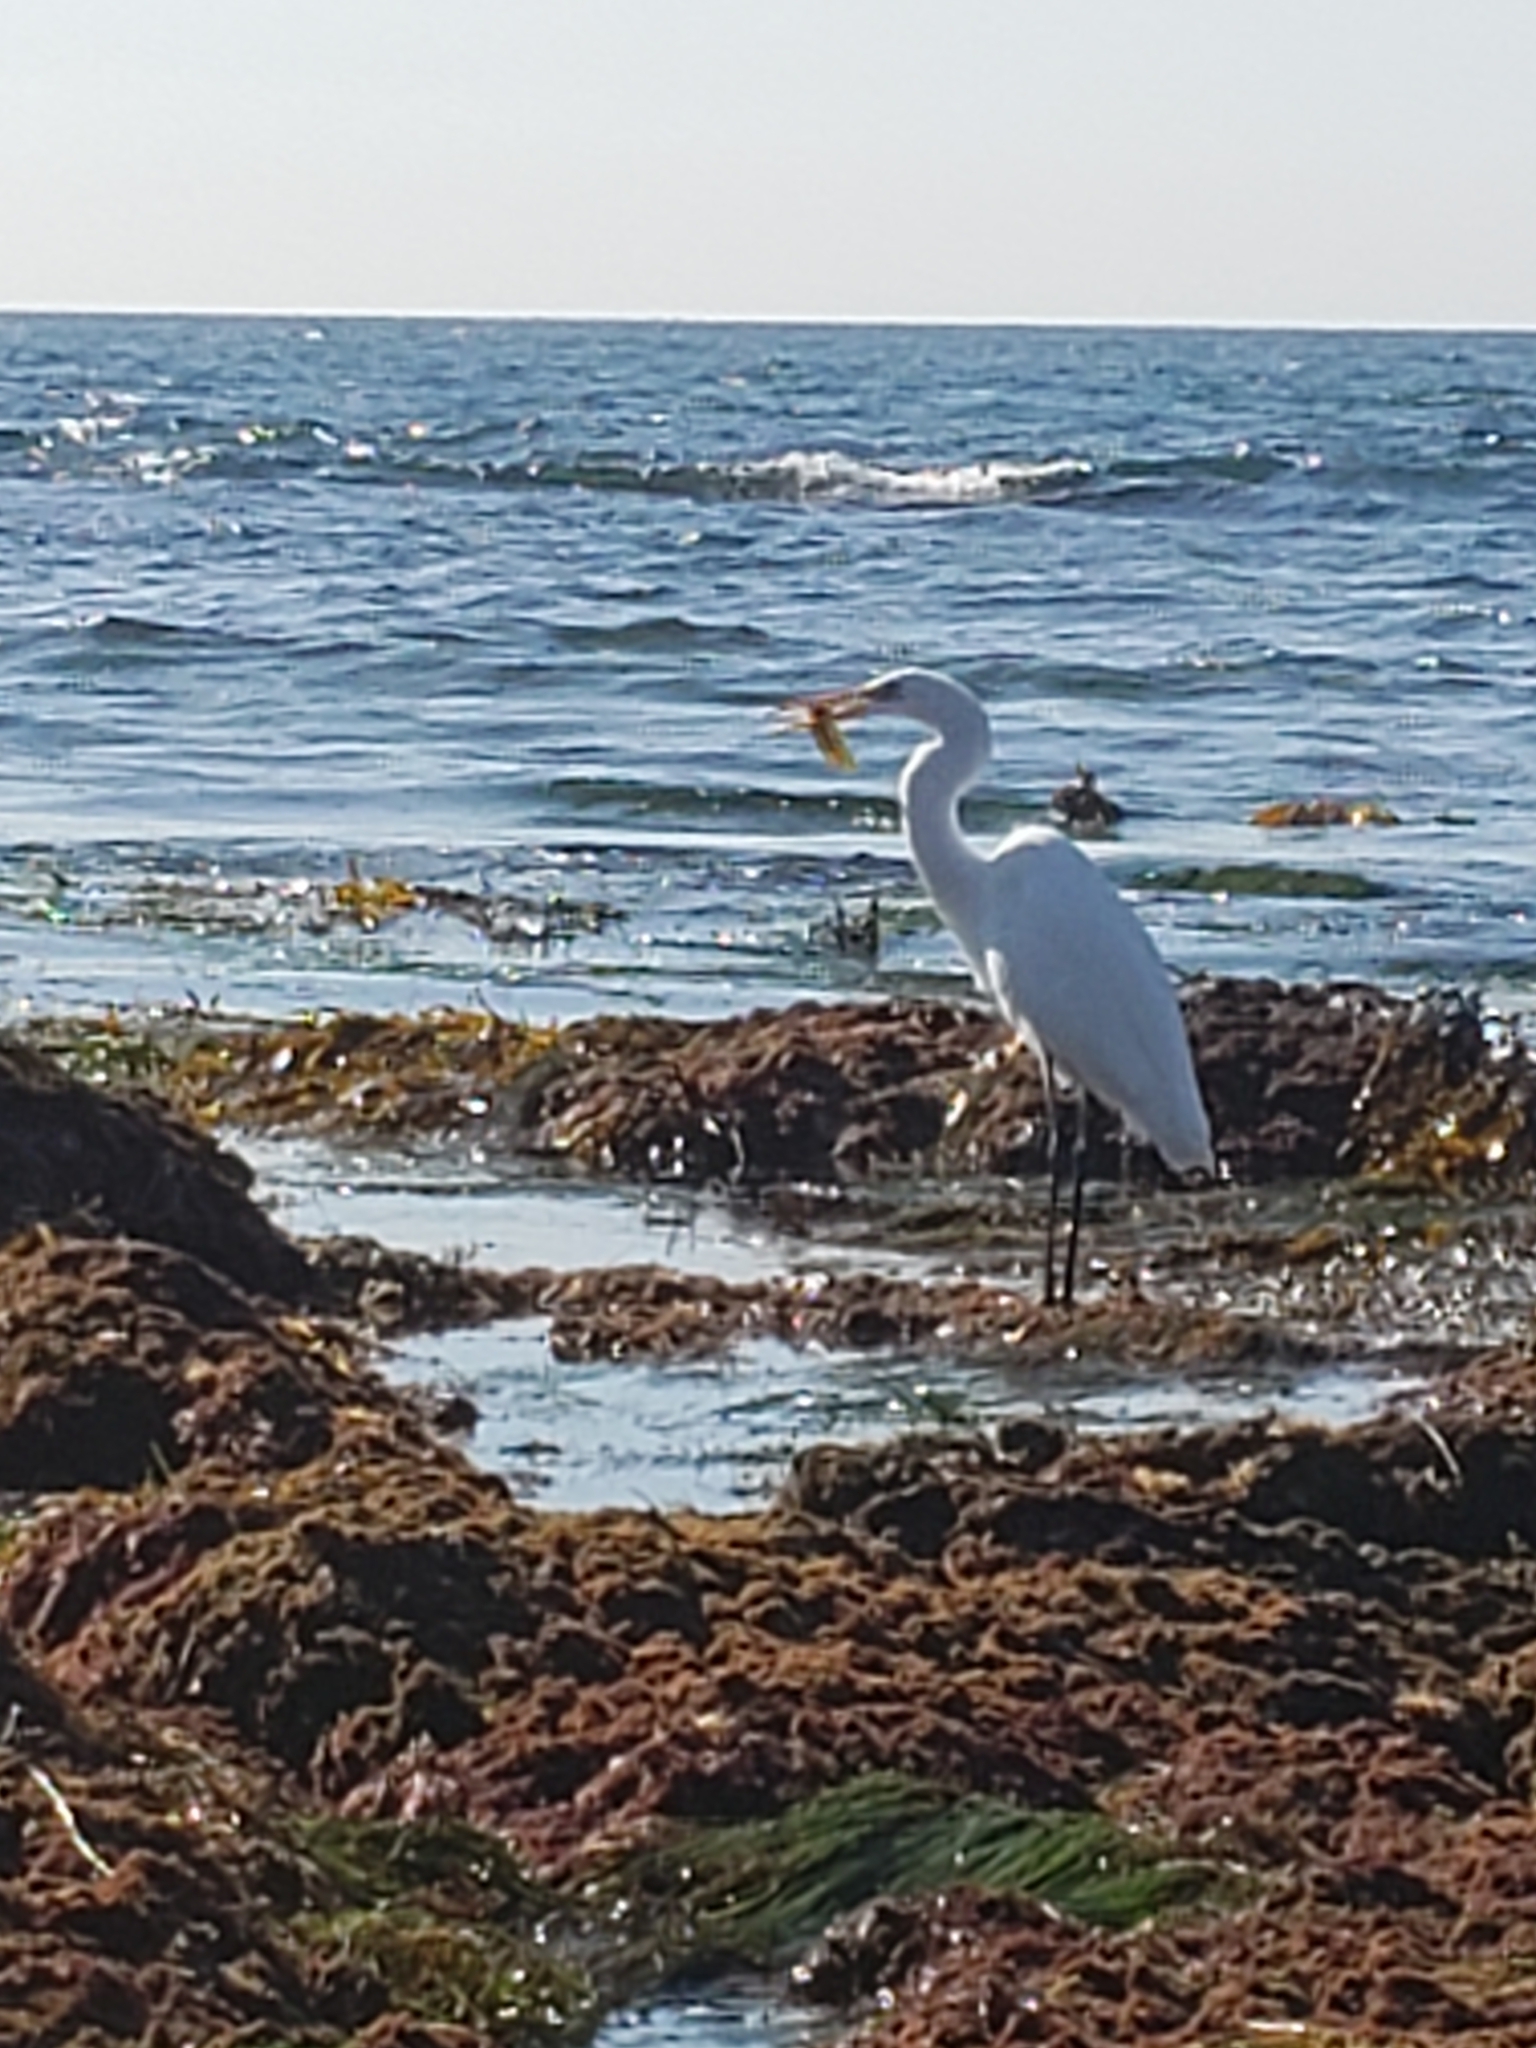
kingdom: Animalia
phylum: Chordata
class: Aves
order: Pelecaniformes
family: Ardeidae
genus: Ardea
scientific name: Ardea alba
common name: Great egret
